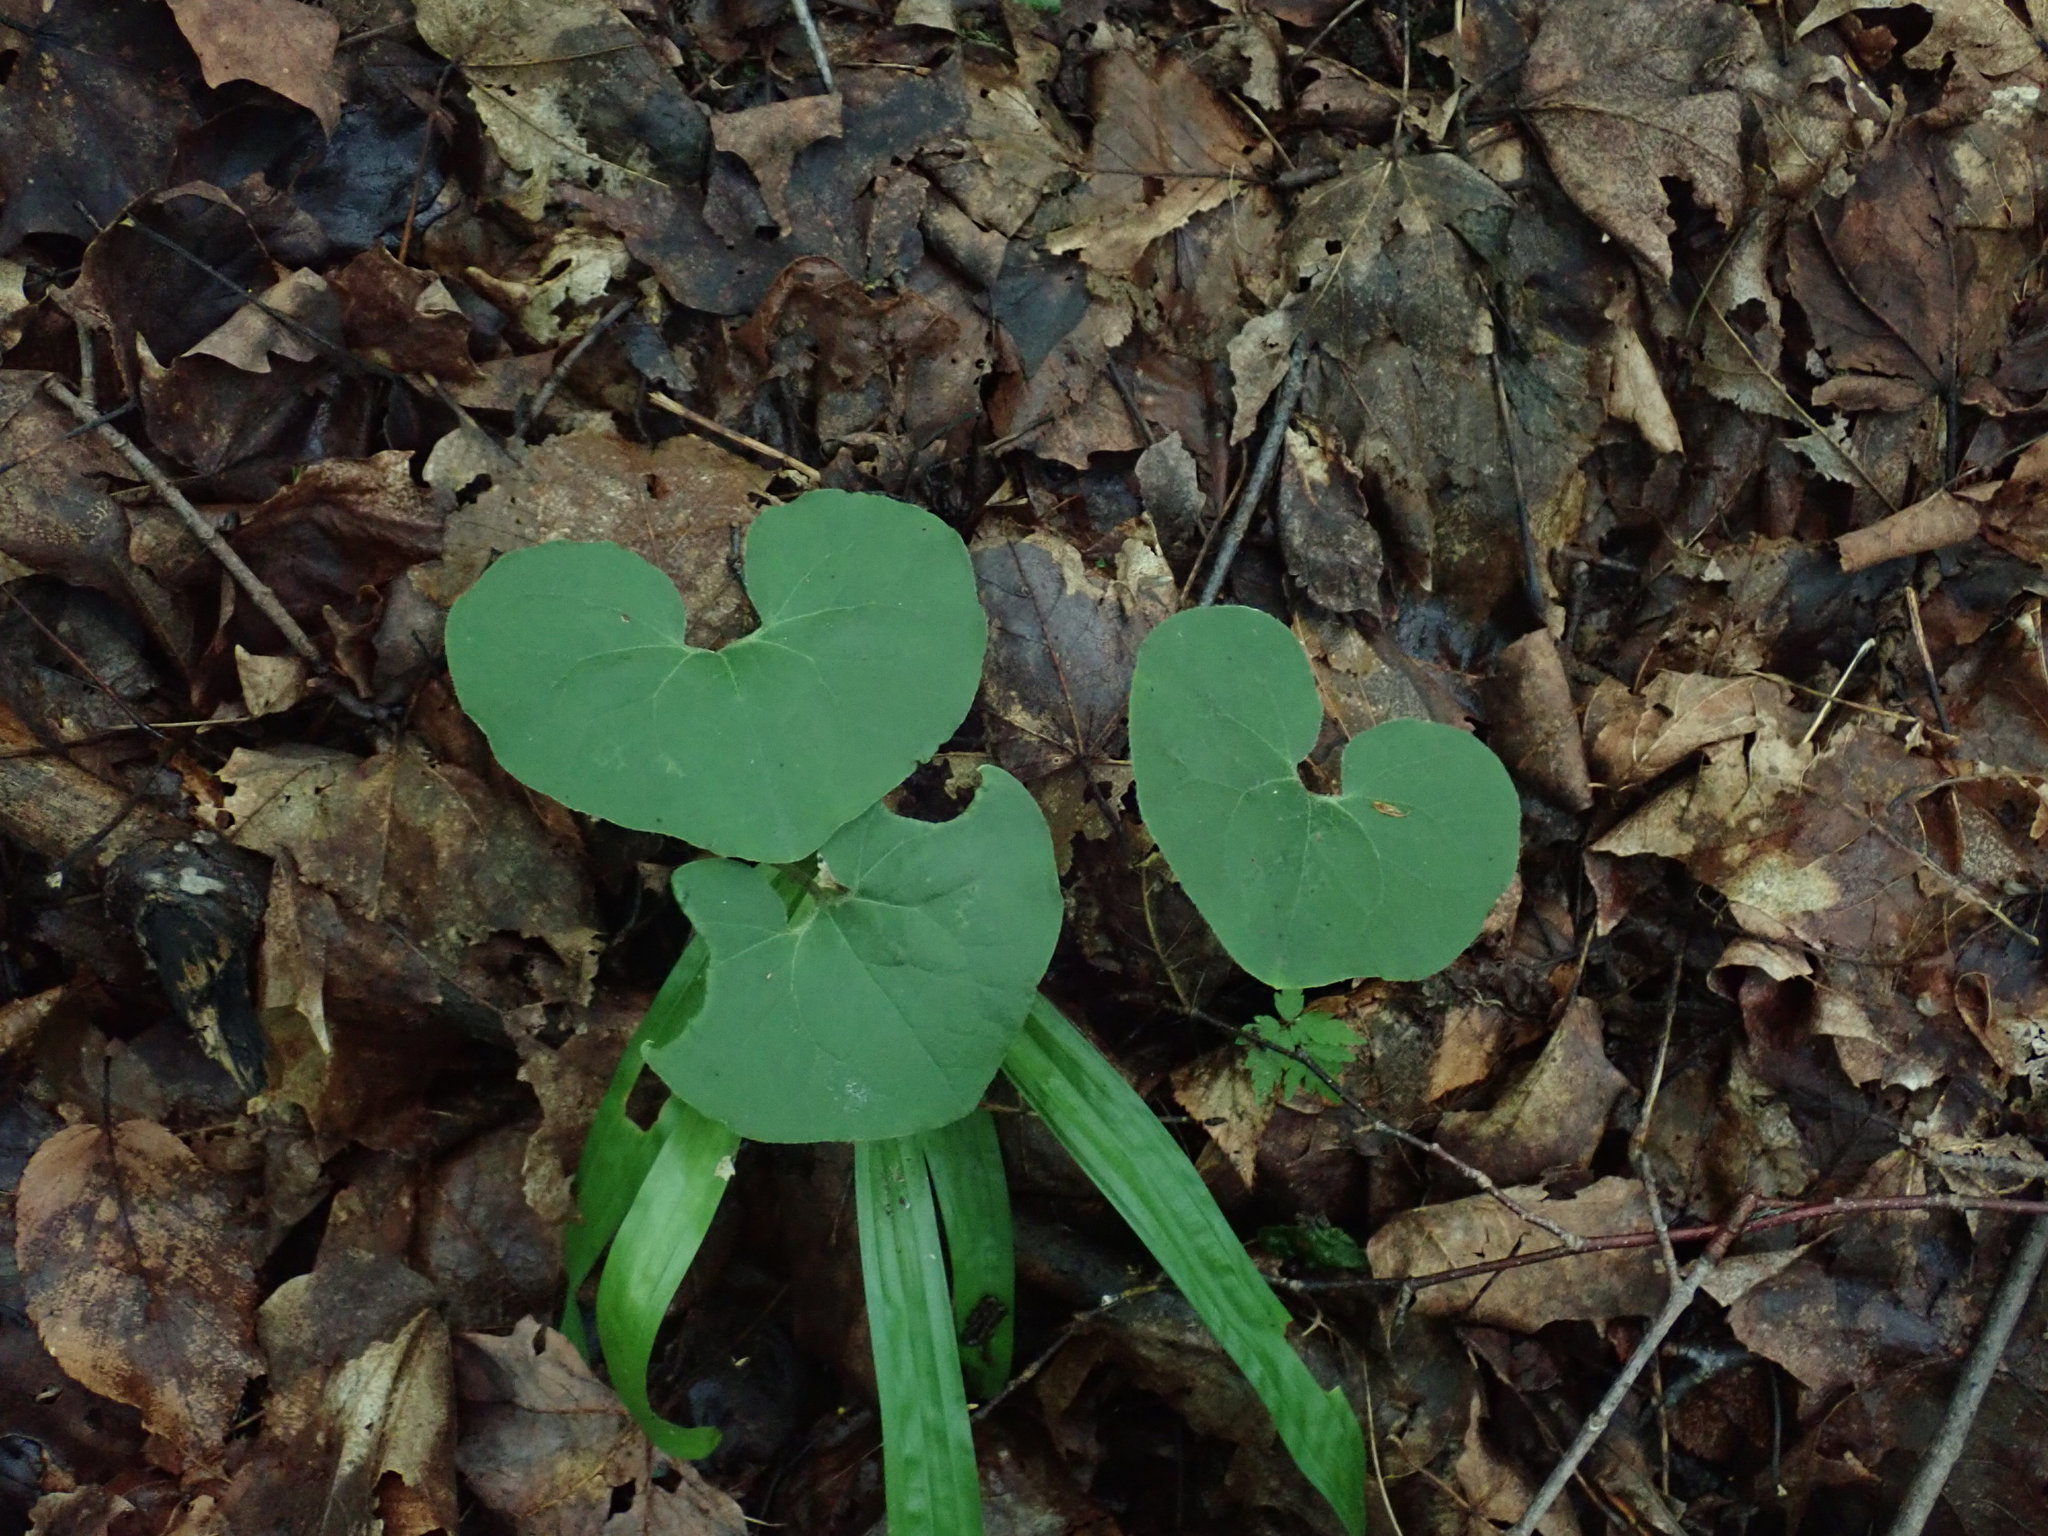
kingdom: Plantae
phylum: Tracheophyta
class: Magnoliopsida
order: Piperales
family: Aristolochiaceae
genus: Asarum
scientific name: Asarum canadense
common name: Wild ginger
